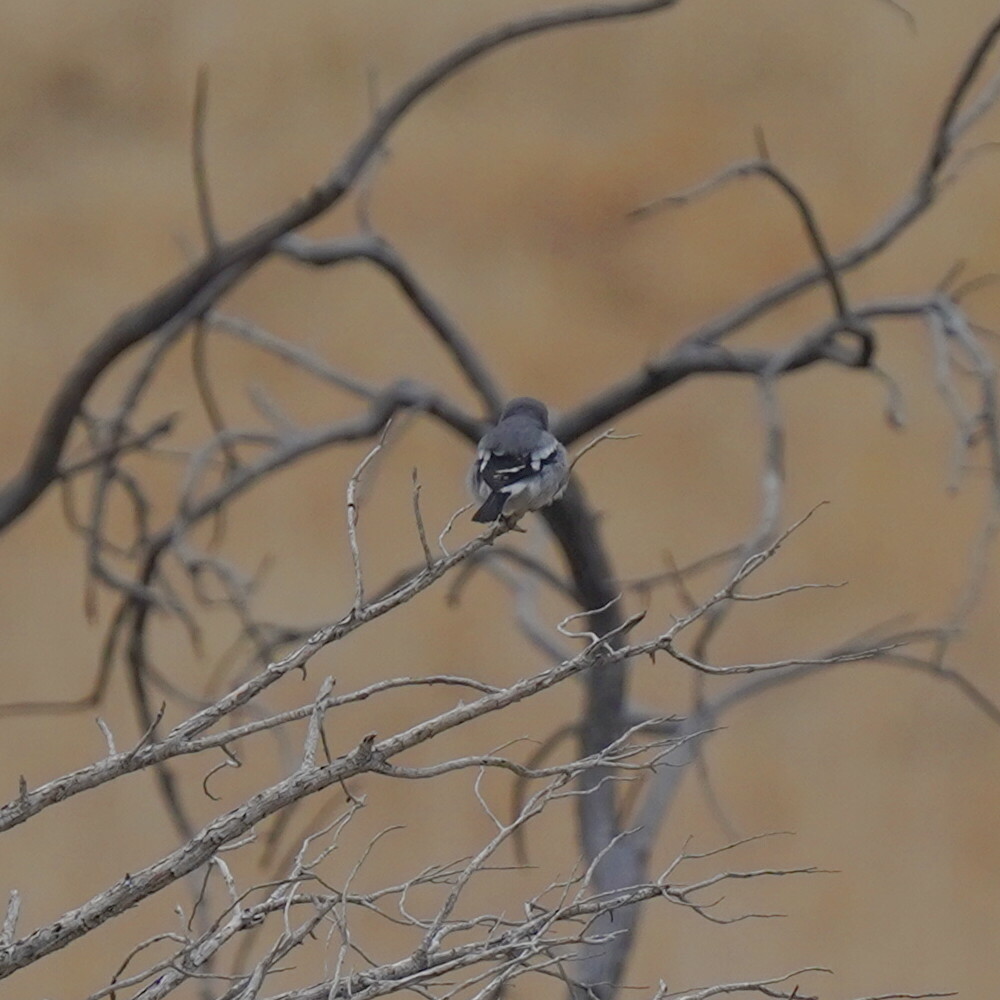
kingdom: Animalia
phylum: Chordata
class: Aves
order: Passeriformes
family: Laniidae
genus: Lanius
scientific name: Lanius ludovicianus
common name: Loggerhead shrike
